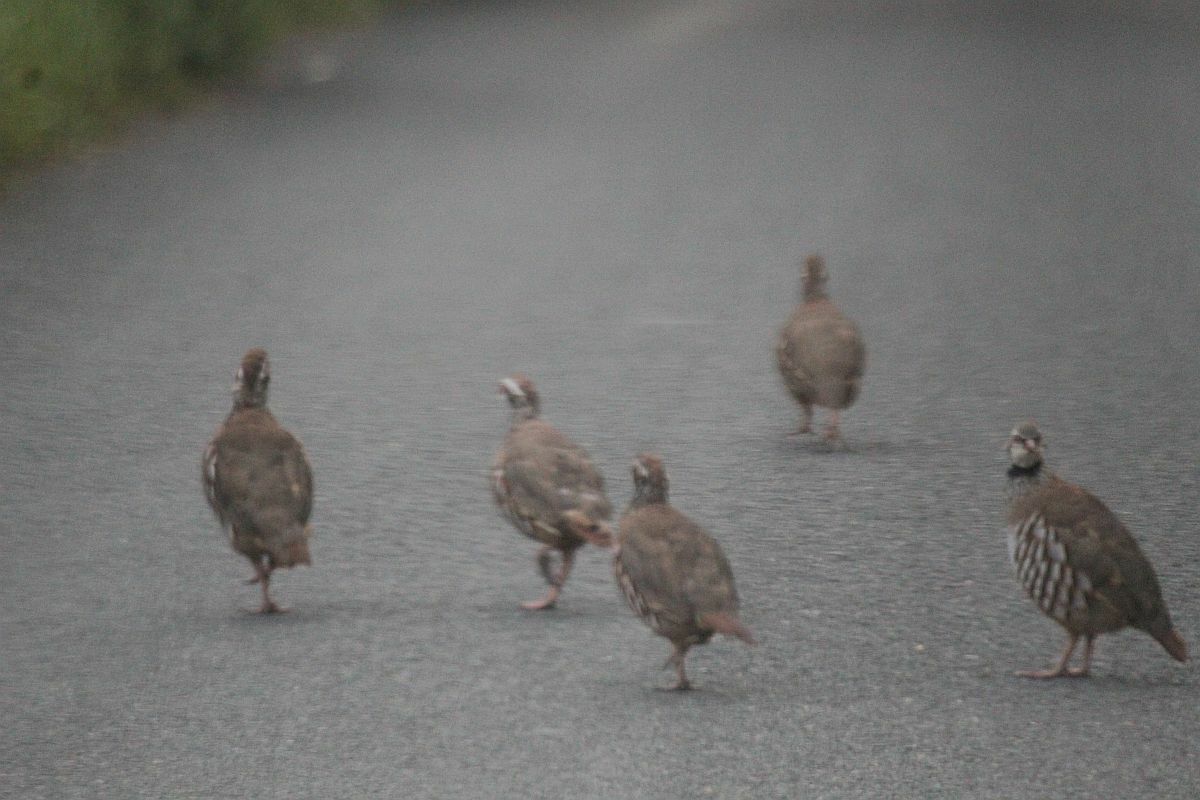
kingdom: Animalia
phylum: Chordata
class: Aves
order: Galliformes
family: Phasianidae
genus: Alectoris
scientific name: Alectoris rufa
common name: Red-legged partridge
